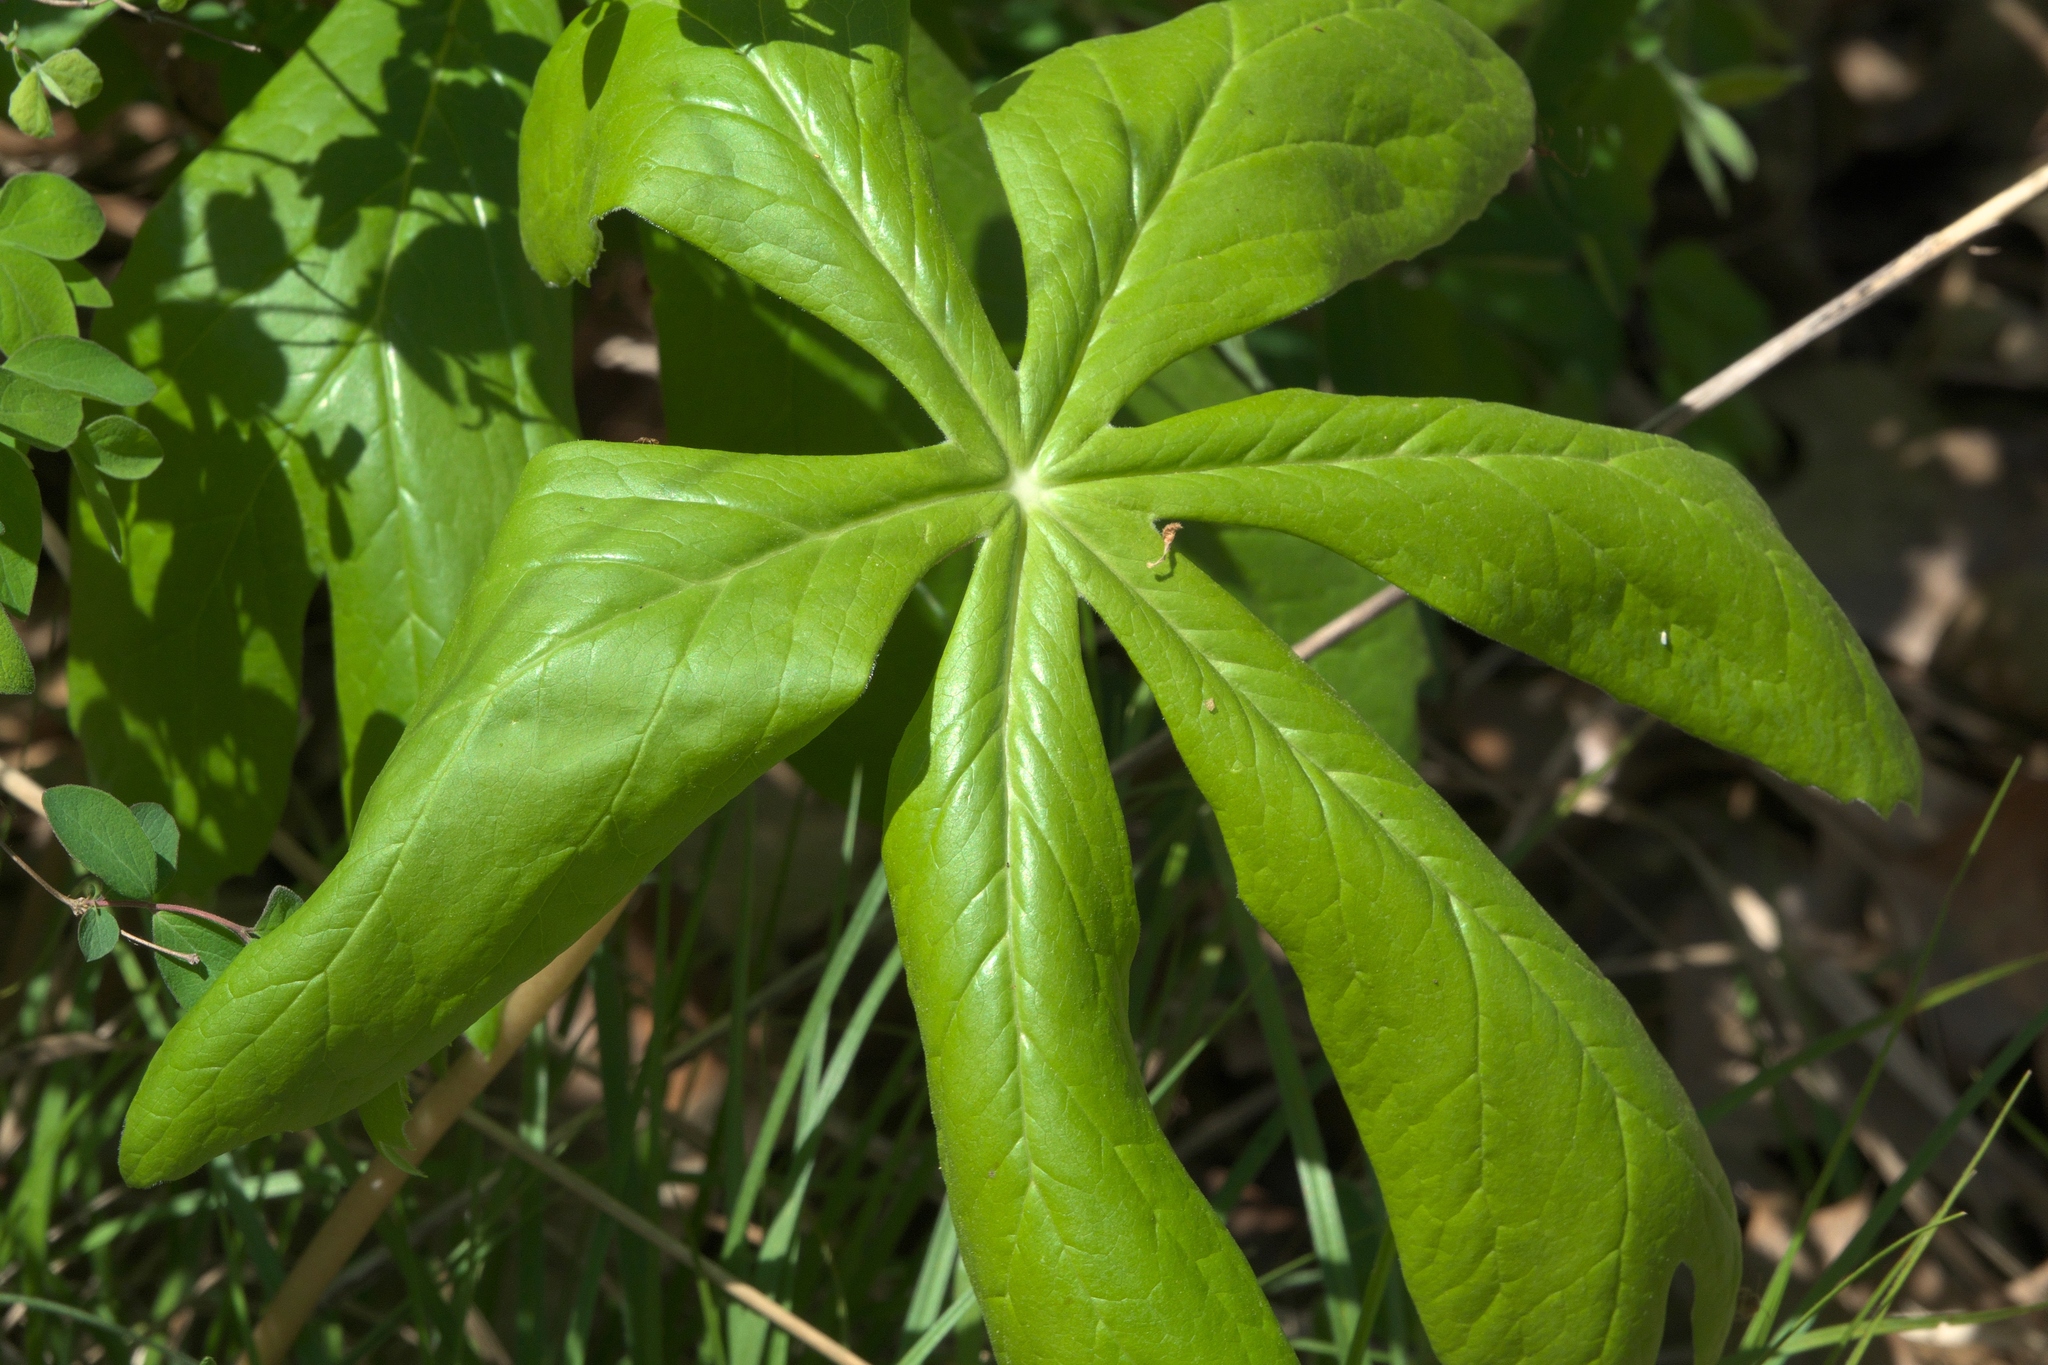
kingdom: Plantae
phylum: Tracheophyta
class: Magnoliopsida
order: Ranunculales
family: Berberidaceae
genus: Podophyllum
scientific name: Podophyllum peltatum
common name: Wild mandrake
